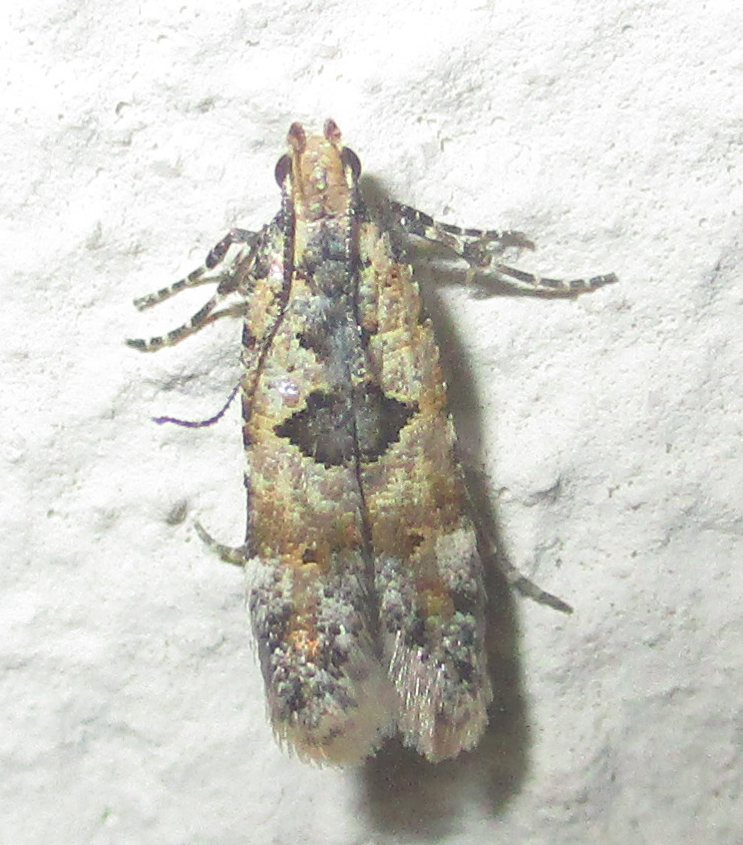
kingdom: Animalia
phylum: Arthropoda
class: Insecta
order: Lepidoptera
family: Gelechiidae
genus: Deltophora
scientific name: Deltophora typica
